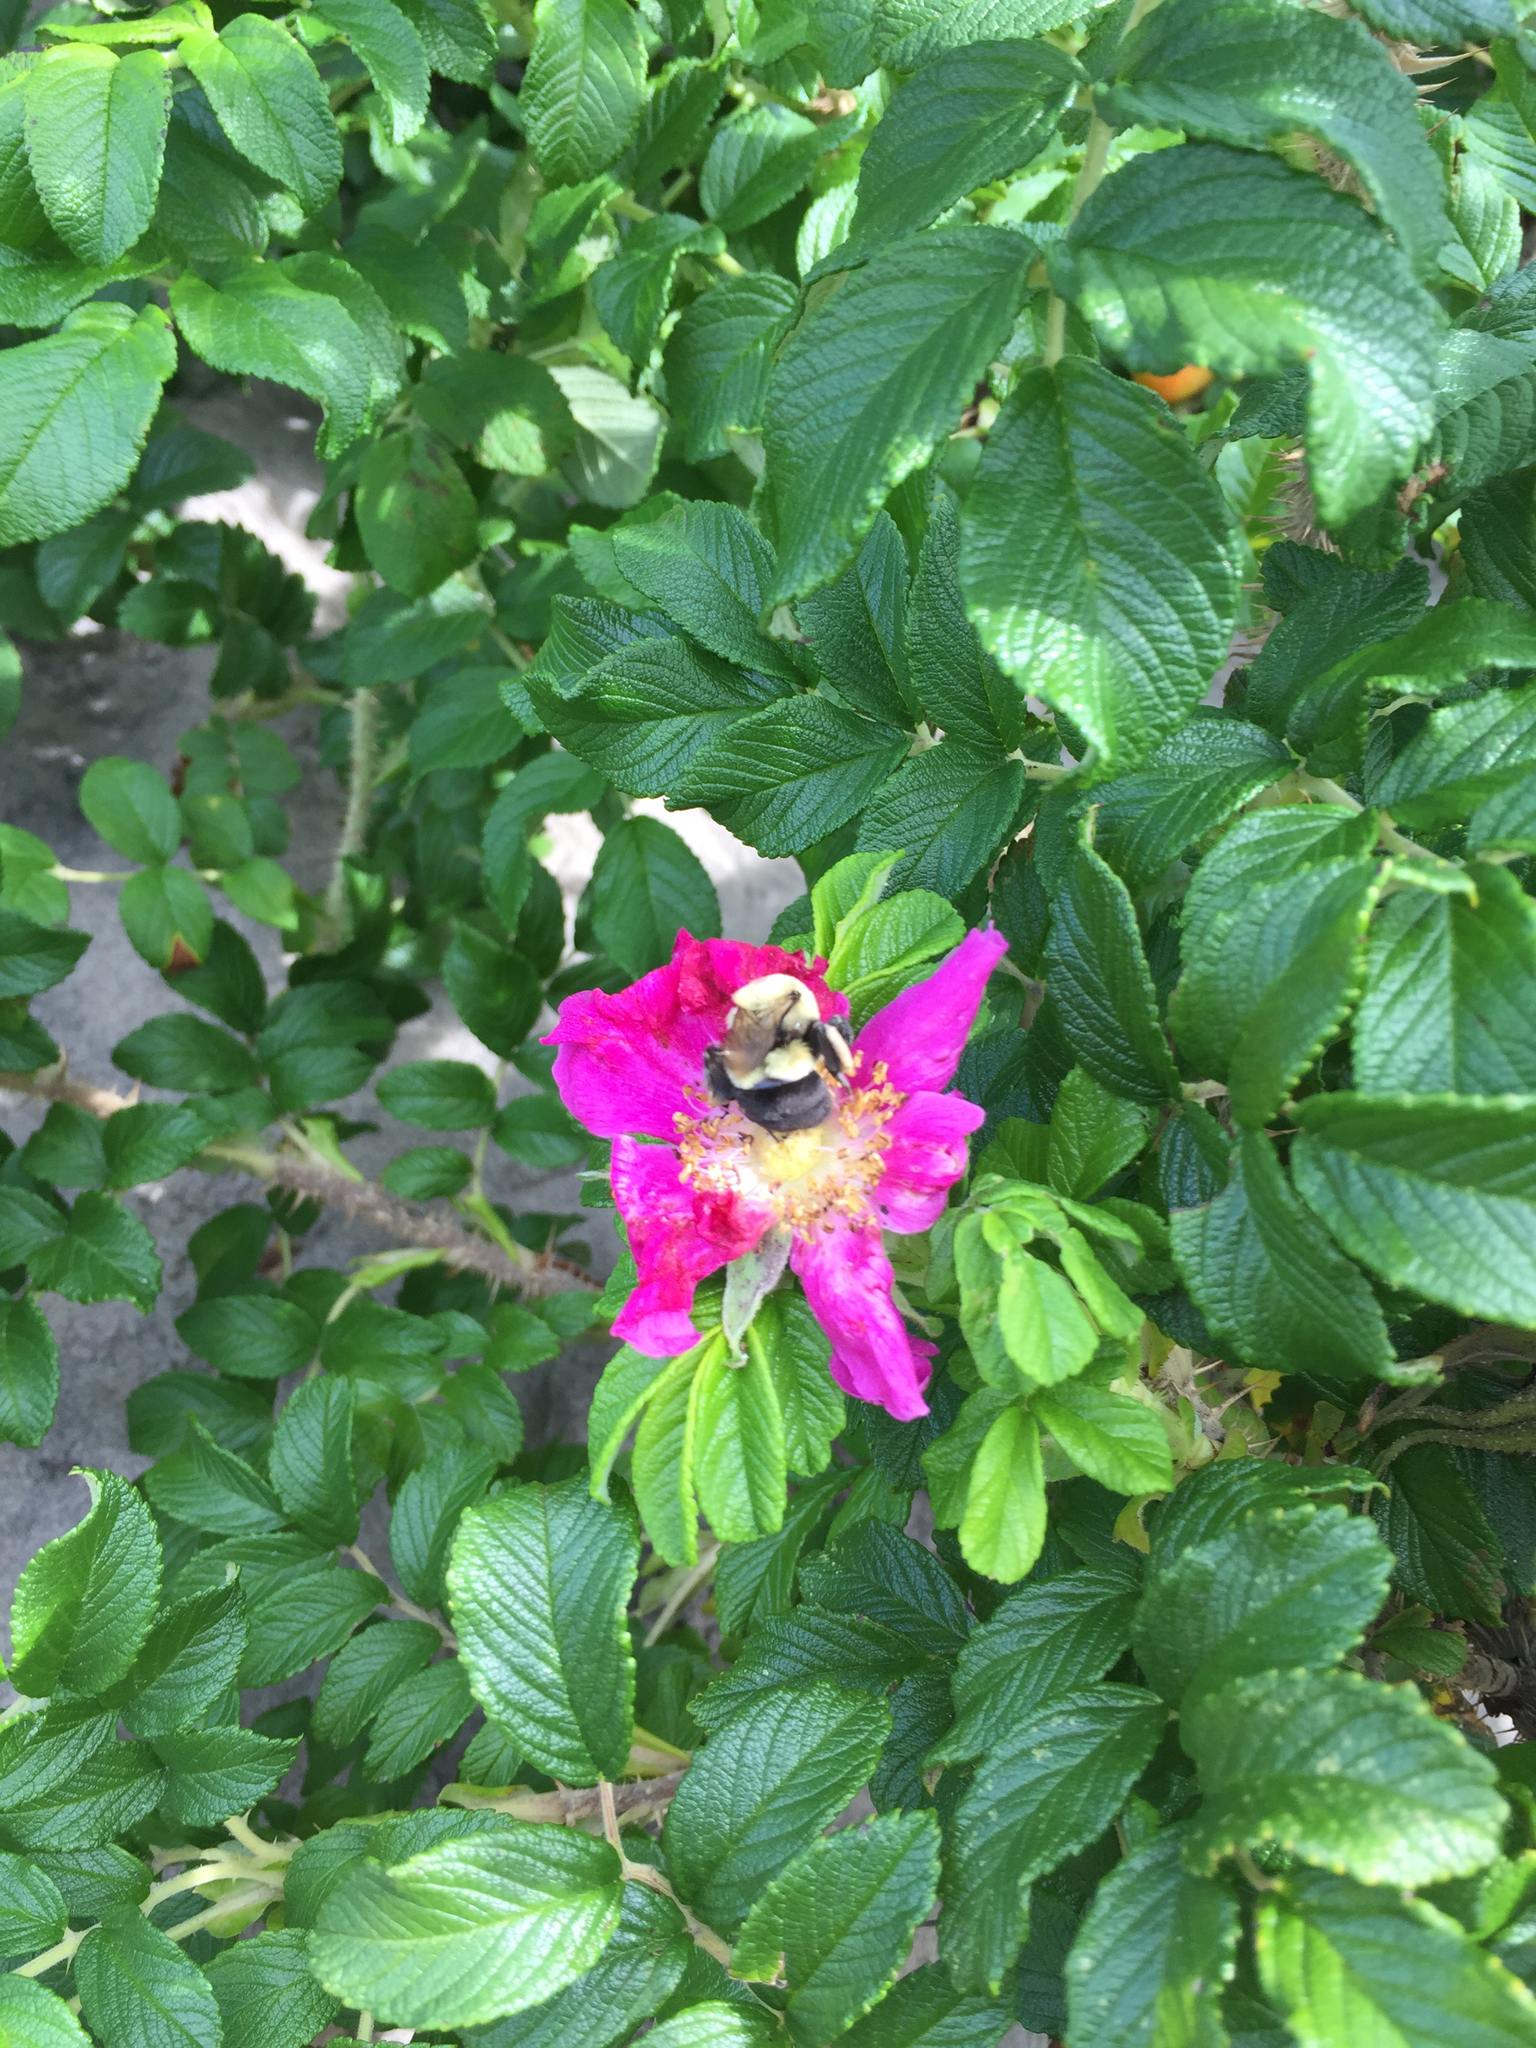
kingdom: Animalia
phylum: Arthropoda
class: Insecta
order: Hymenoptera
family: Apidae
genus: Bombus
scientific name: Bombus impatiens
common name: Common eastern bumble bee
